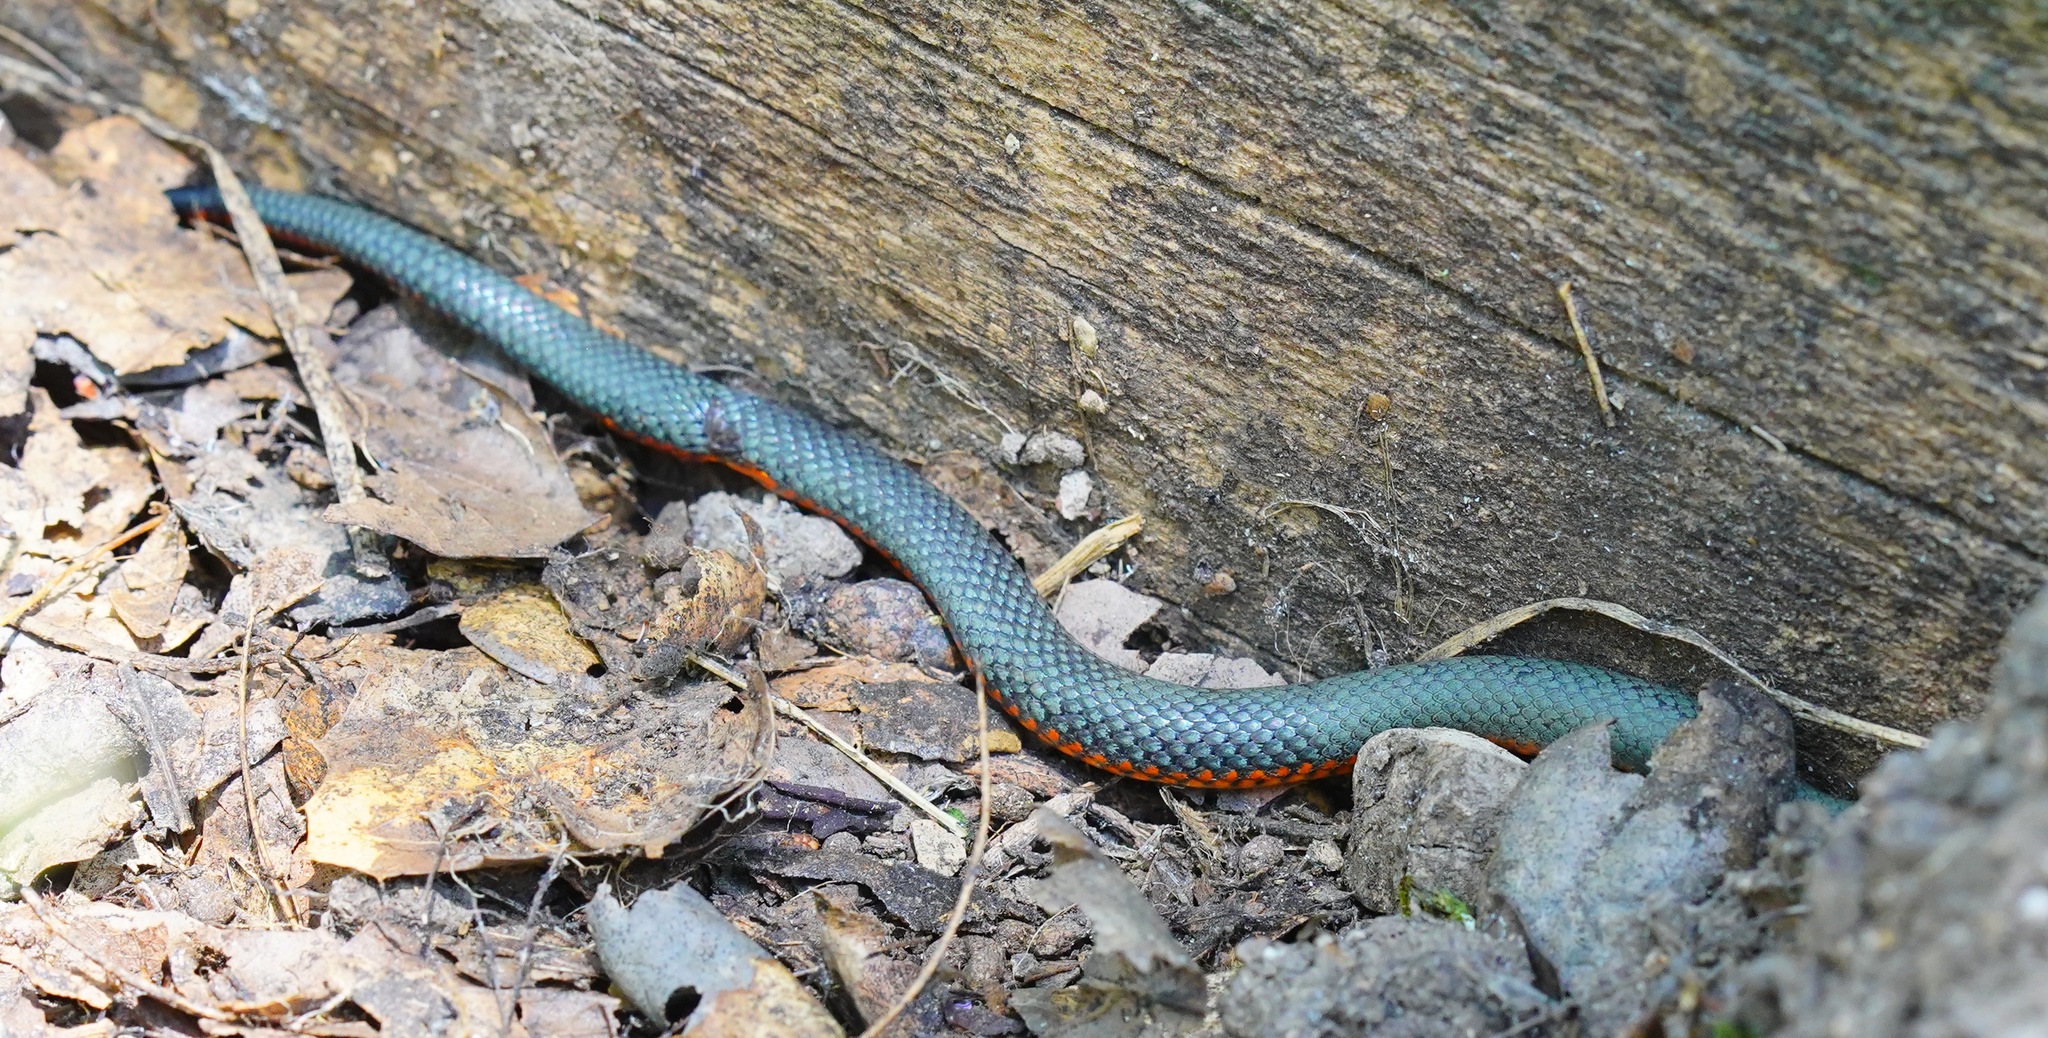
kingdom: Animalia
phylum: Chordata
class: Squamata
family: Colubridae
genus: Diadophis
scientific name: Diadophis punctatus
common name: Ringneck snake
